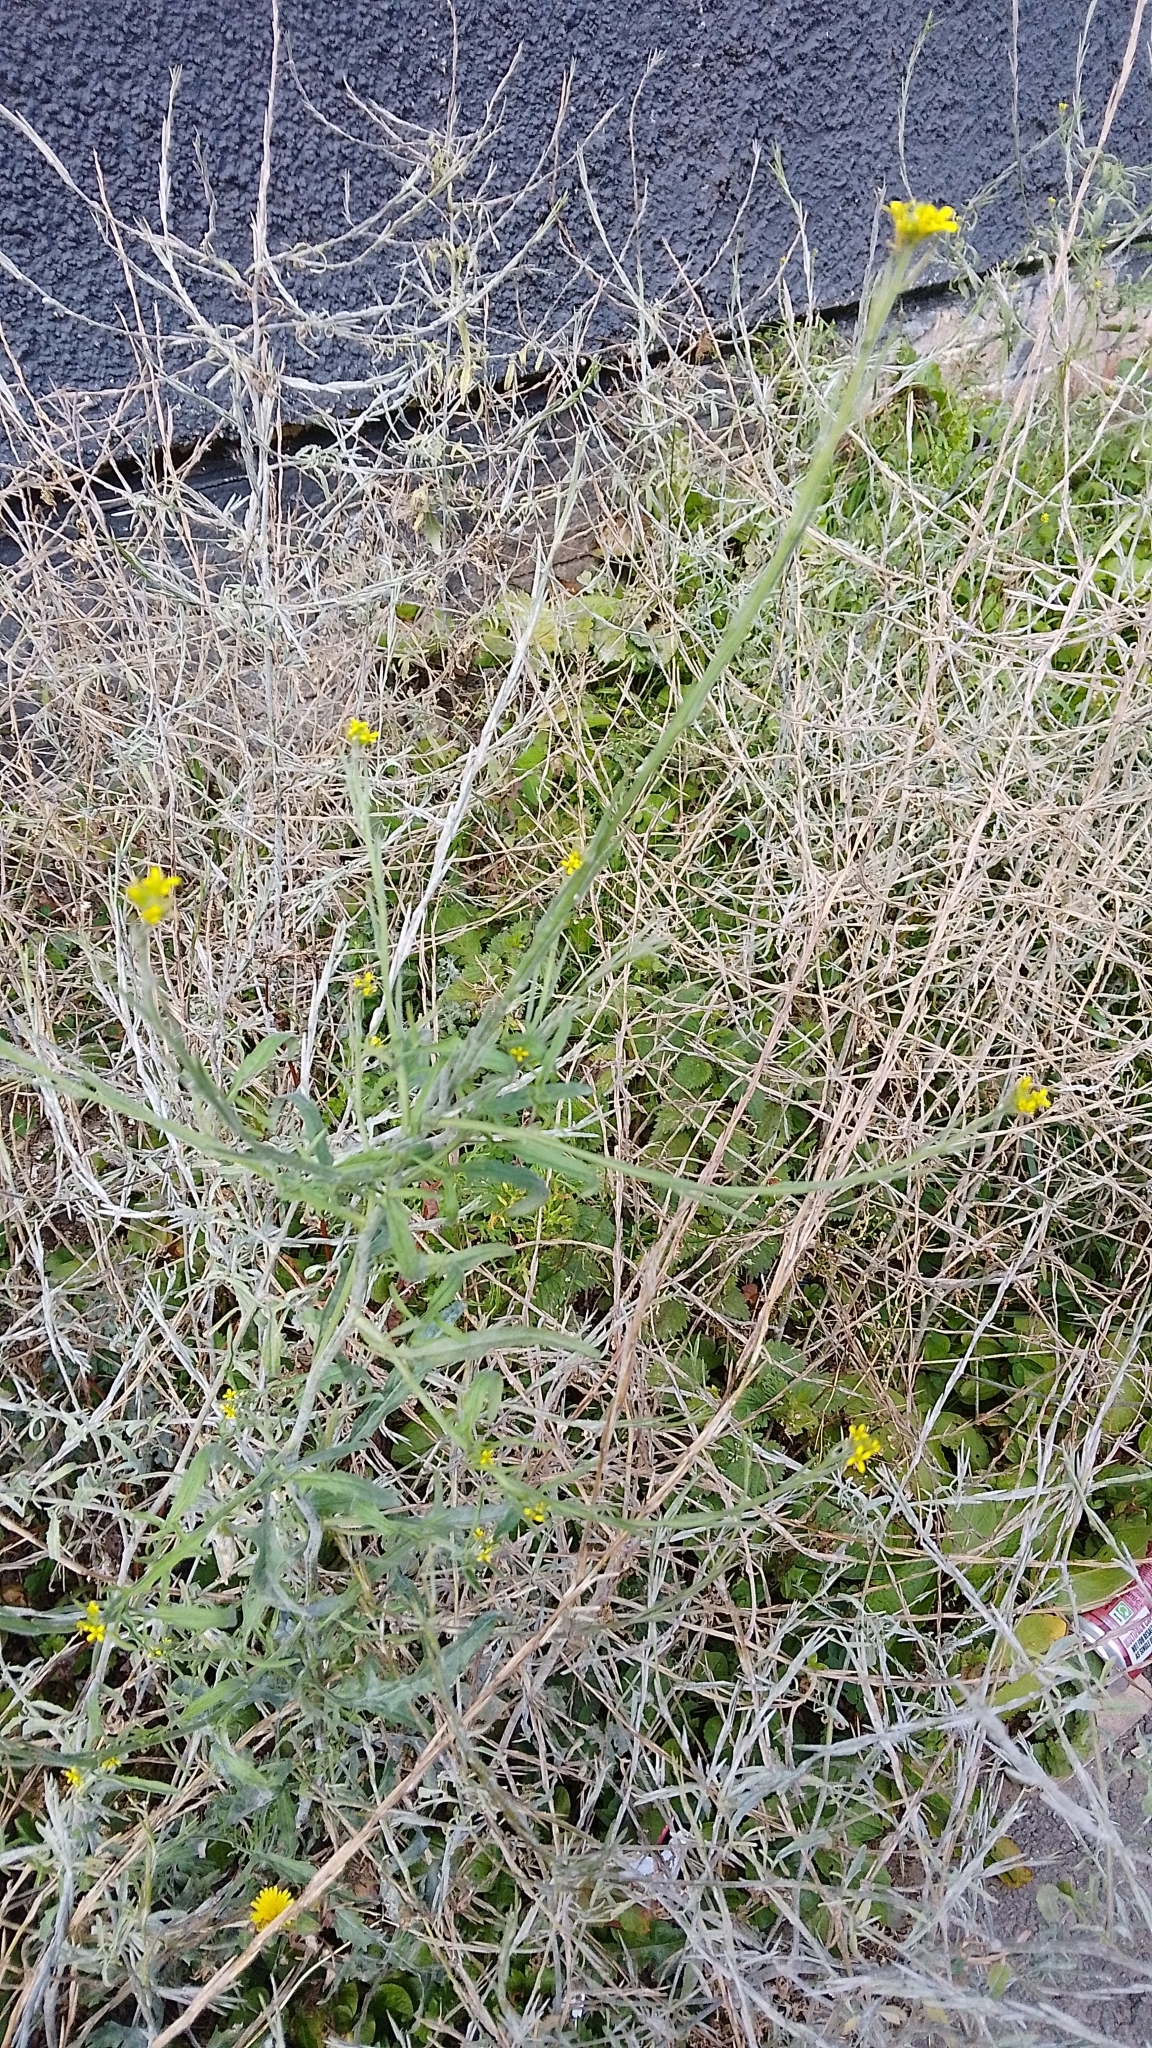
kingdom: Plantae
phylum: Tracheophyta
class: Magnoliopsida
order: Brassicales
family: Brassicaceae
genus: Sisymbrium
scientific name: Sisymbrium officinale
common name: Hedge mustard
